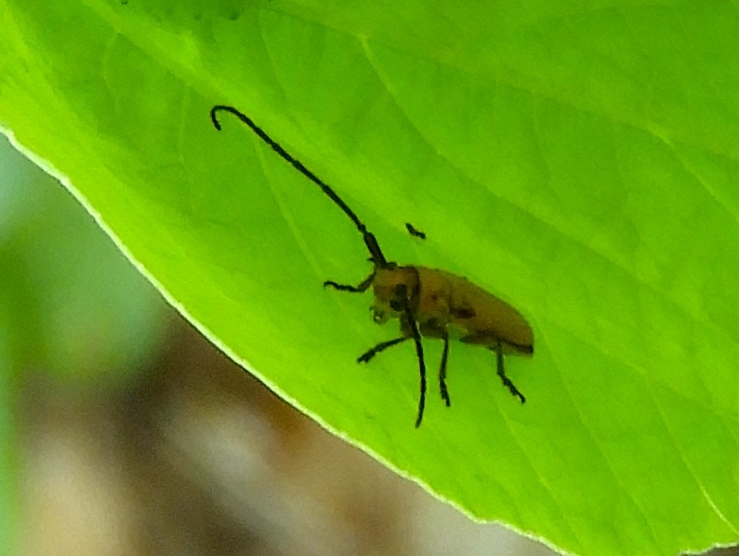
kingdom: Animalia
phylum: Arthropoda
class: Insecta
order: Coleoptera
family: Cerambycidae
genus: Essostrutha
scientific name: Essostrutha laeta
